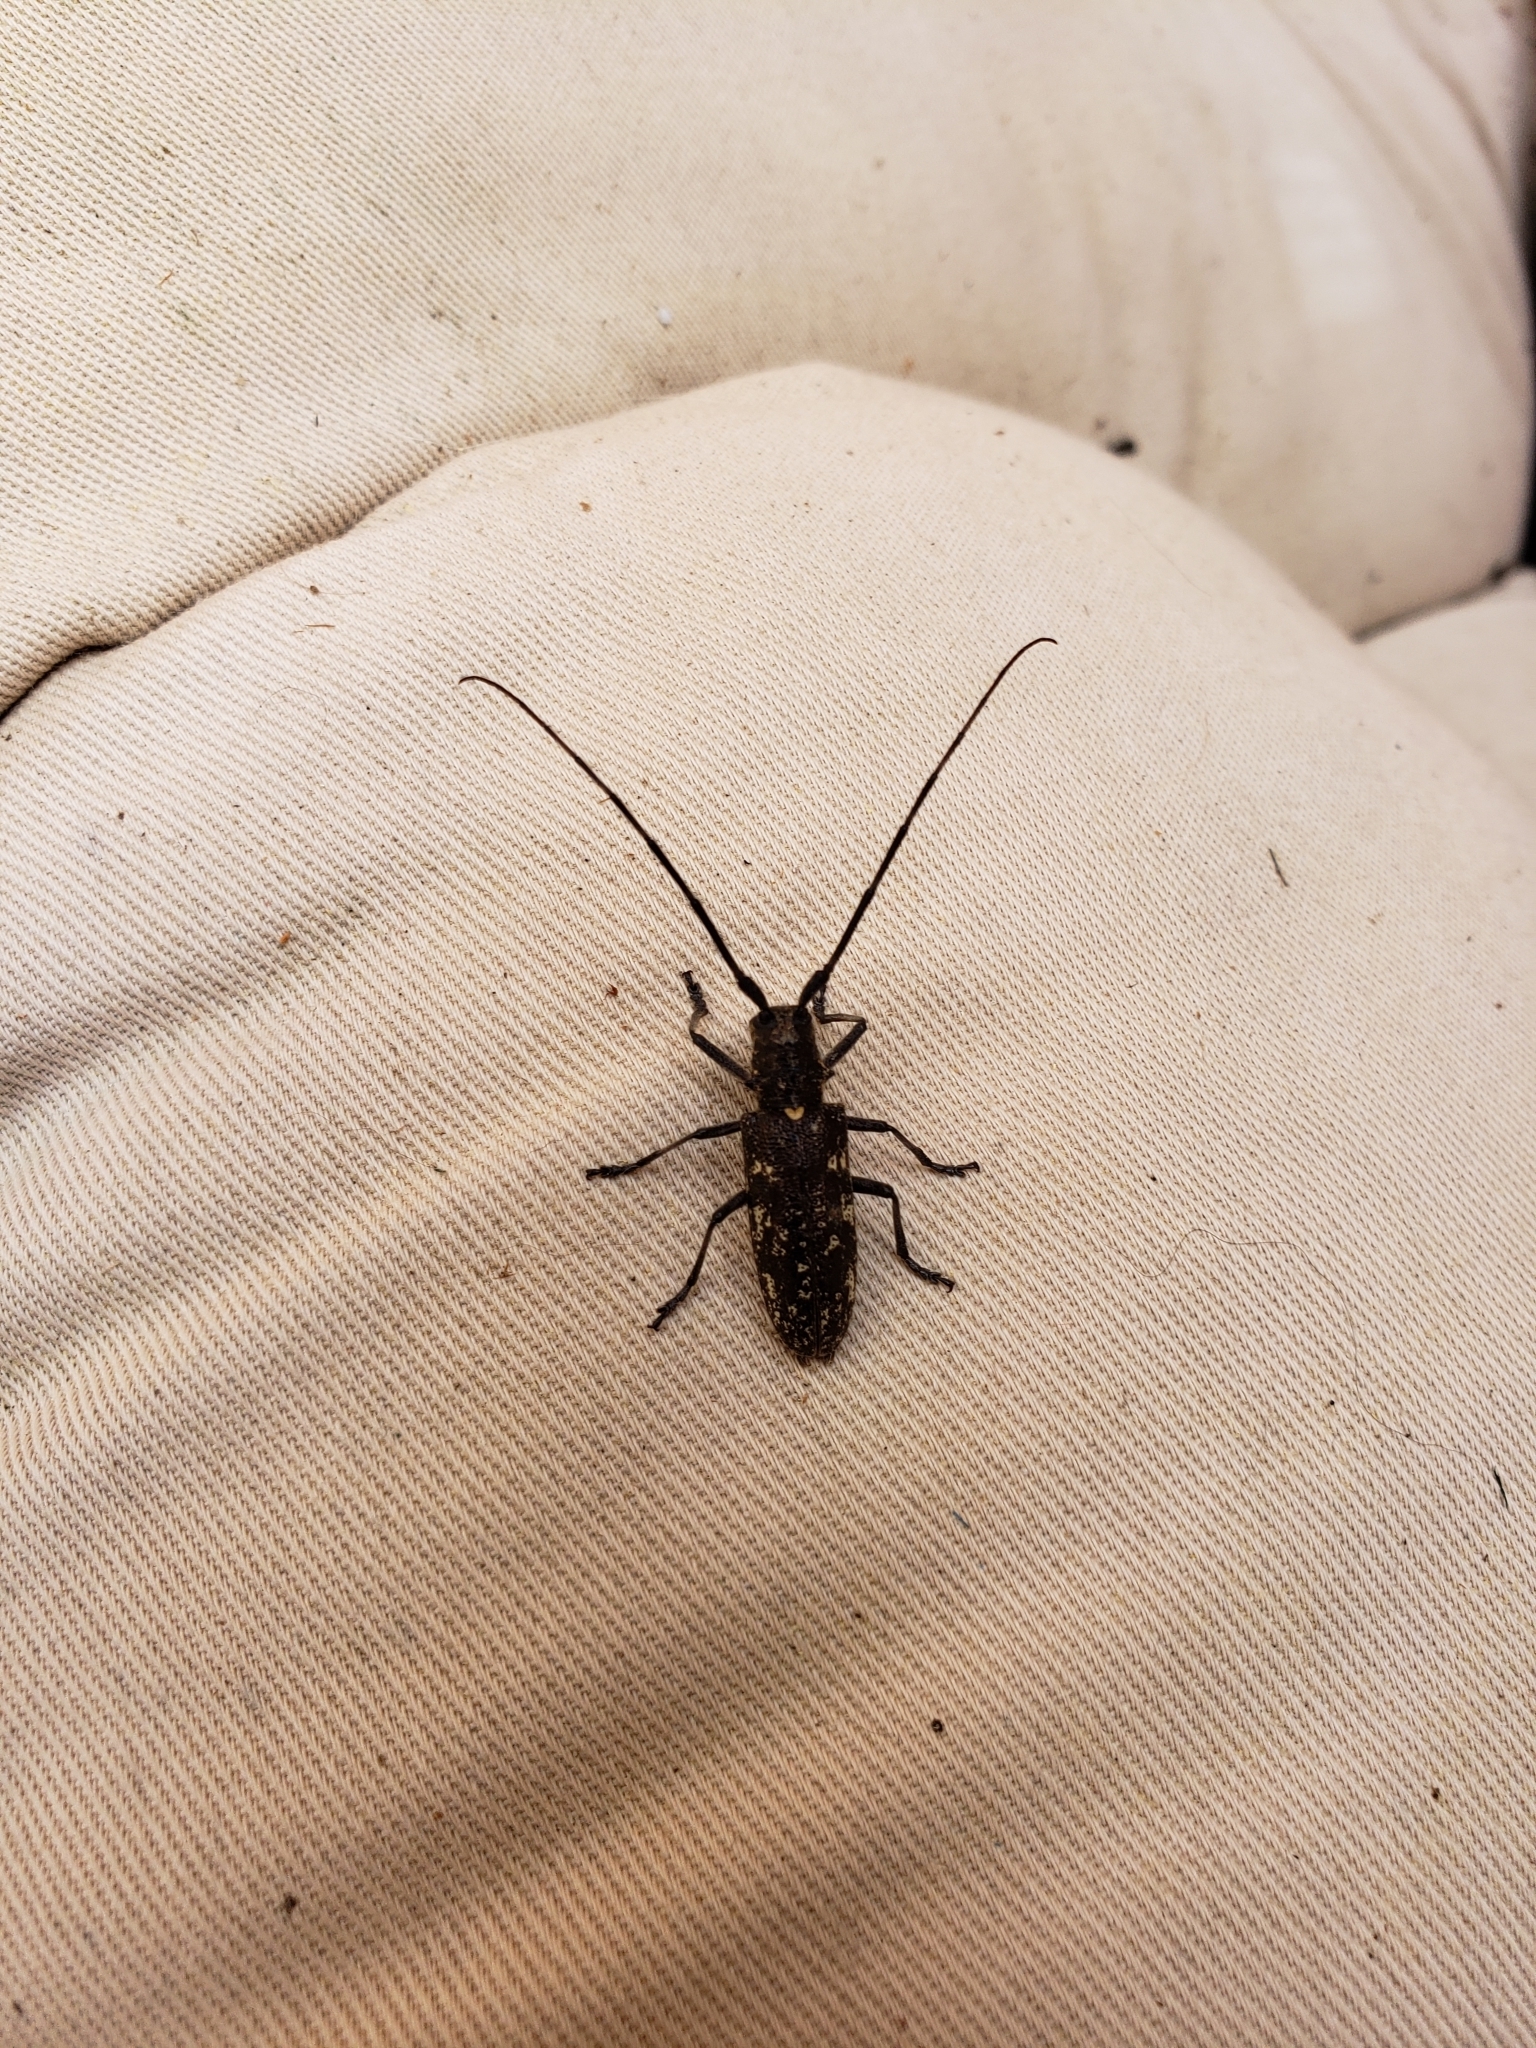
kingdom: Animalia
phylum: Arthropoda
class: Insecta
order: Coleoptera
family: Cerambycidae
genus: Monochamus
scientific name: Monochamus scutellatus
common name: White-spotted sawyer beetle
